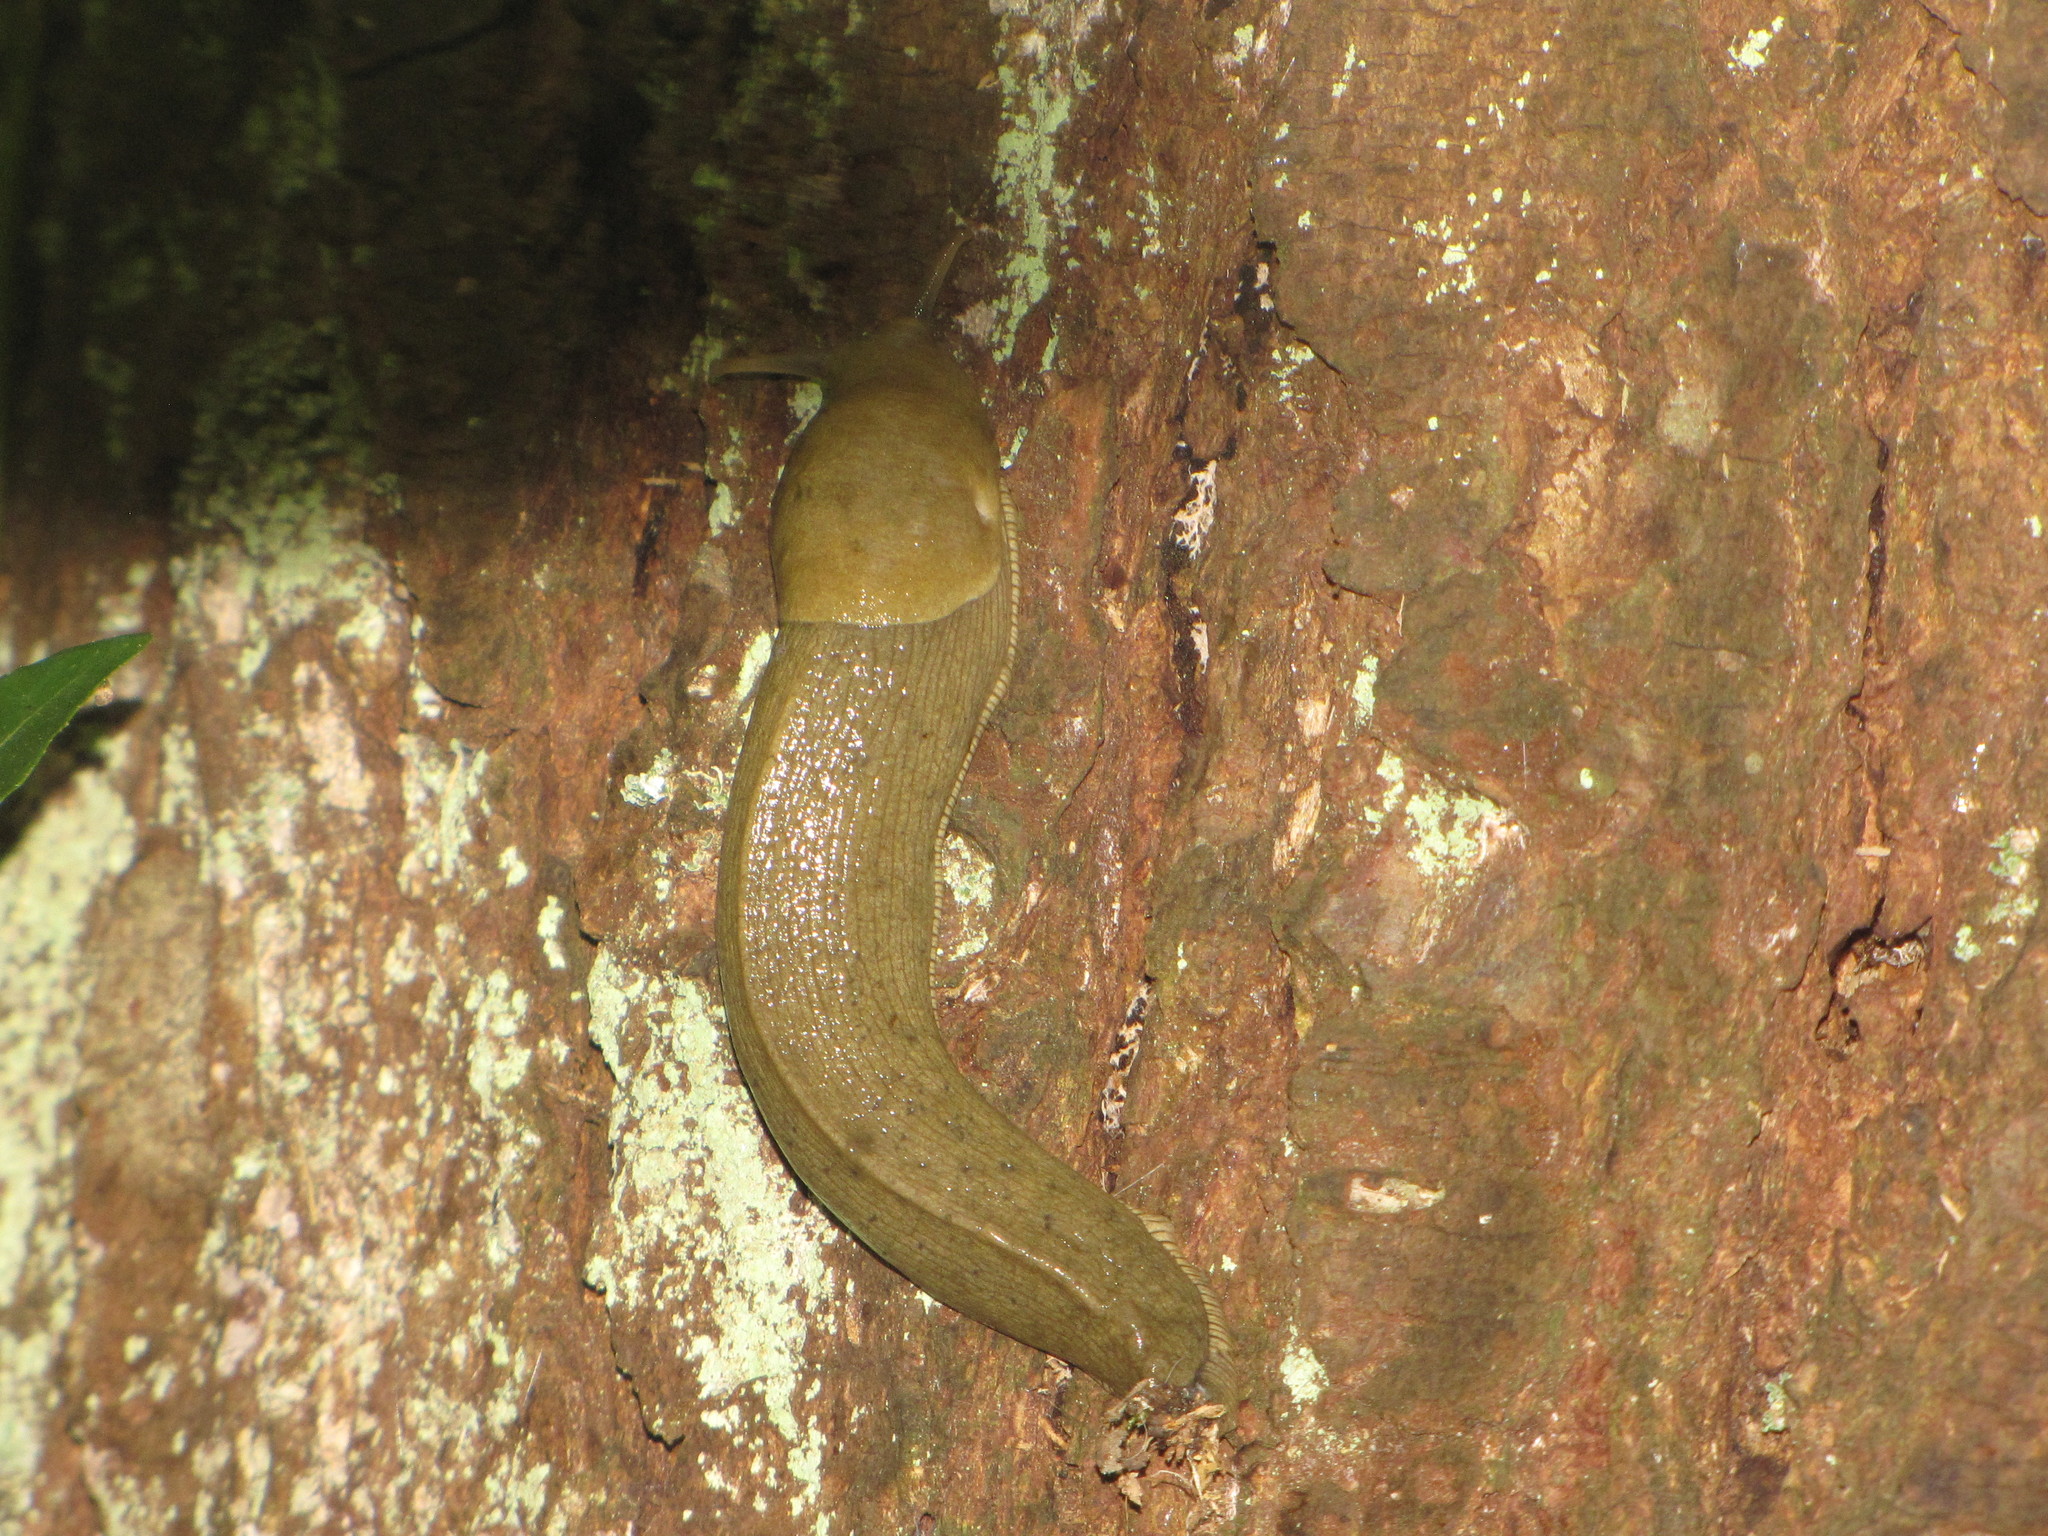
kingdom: Animalia
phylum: Mollusca
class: Gastropoda
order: Stylommatophora
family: Ariolimacidae
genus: Ariolimax
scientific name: Ariolimax columbianus
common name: Pacific banana slug
